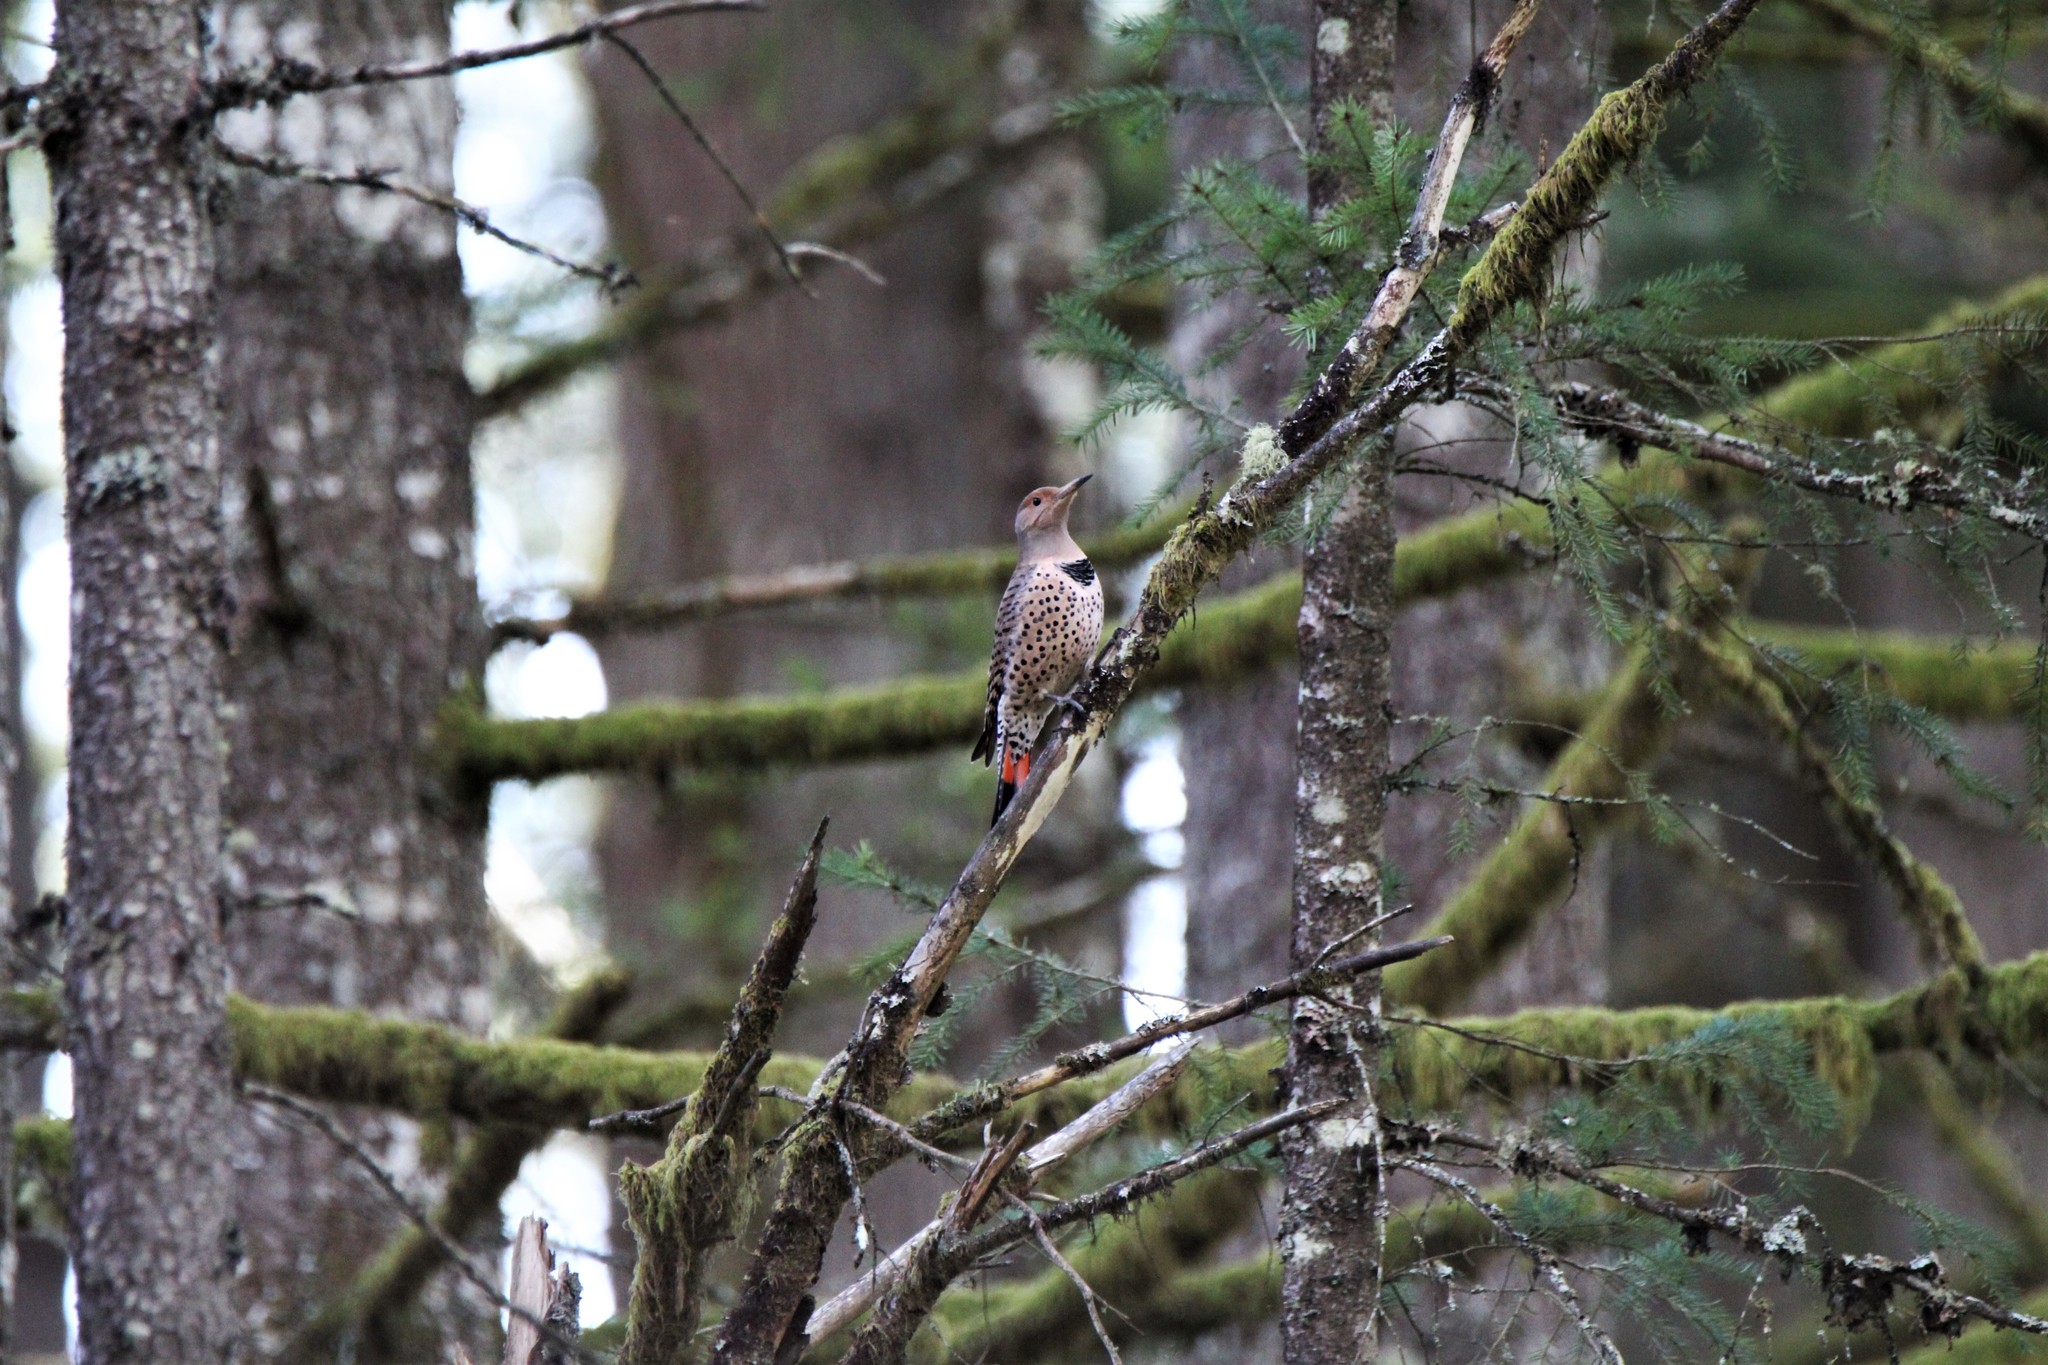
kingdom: Animalia
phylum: Chordata
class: Aves
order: Piciformes
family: Picidae
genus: Colaptes
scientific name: Colaptes auratus
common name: Northern flicker
